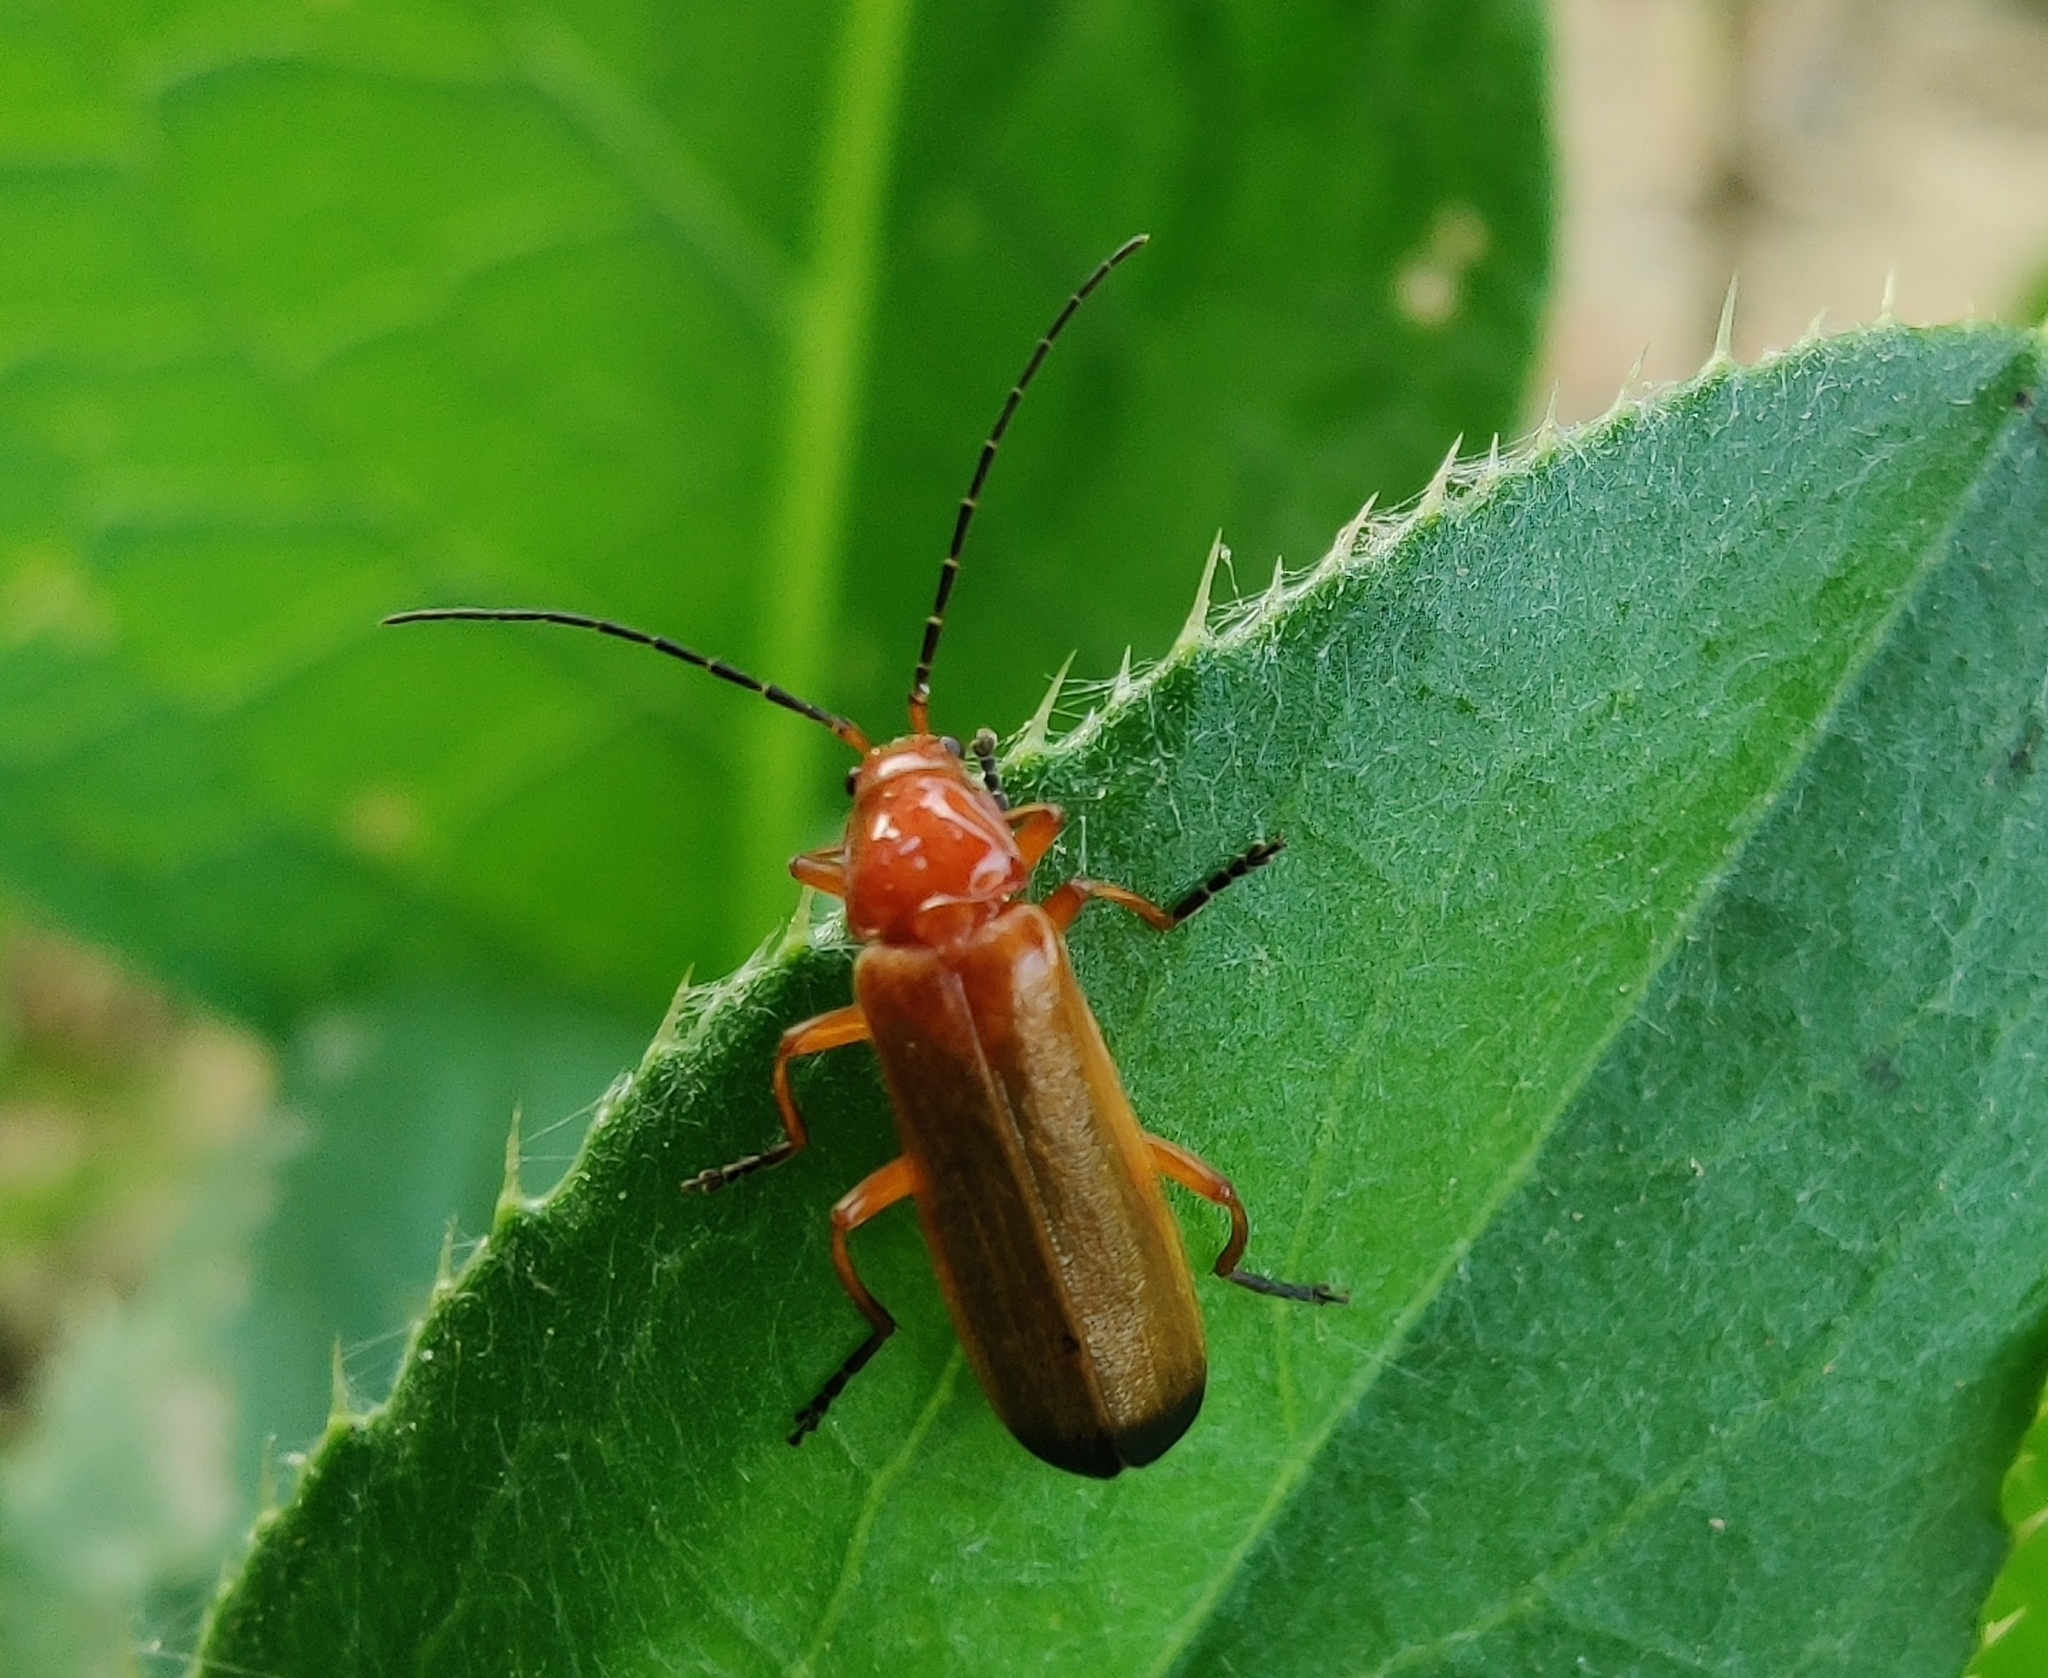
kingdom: Animalia
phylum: Arthropoda
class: Insecta
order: Coleoptera
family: Cantharidae
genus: Rhagonycha
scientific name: Rhagonycha fulva
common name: Common red soldier beetle
